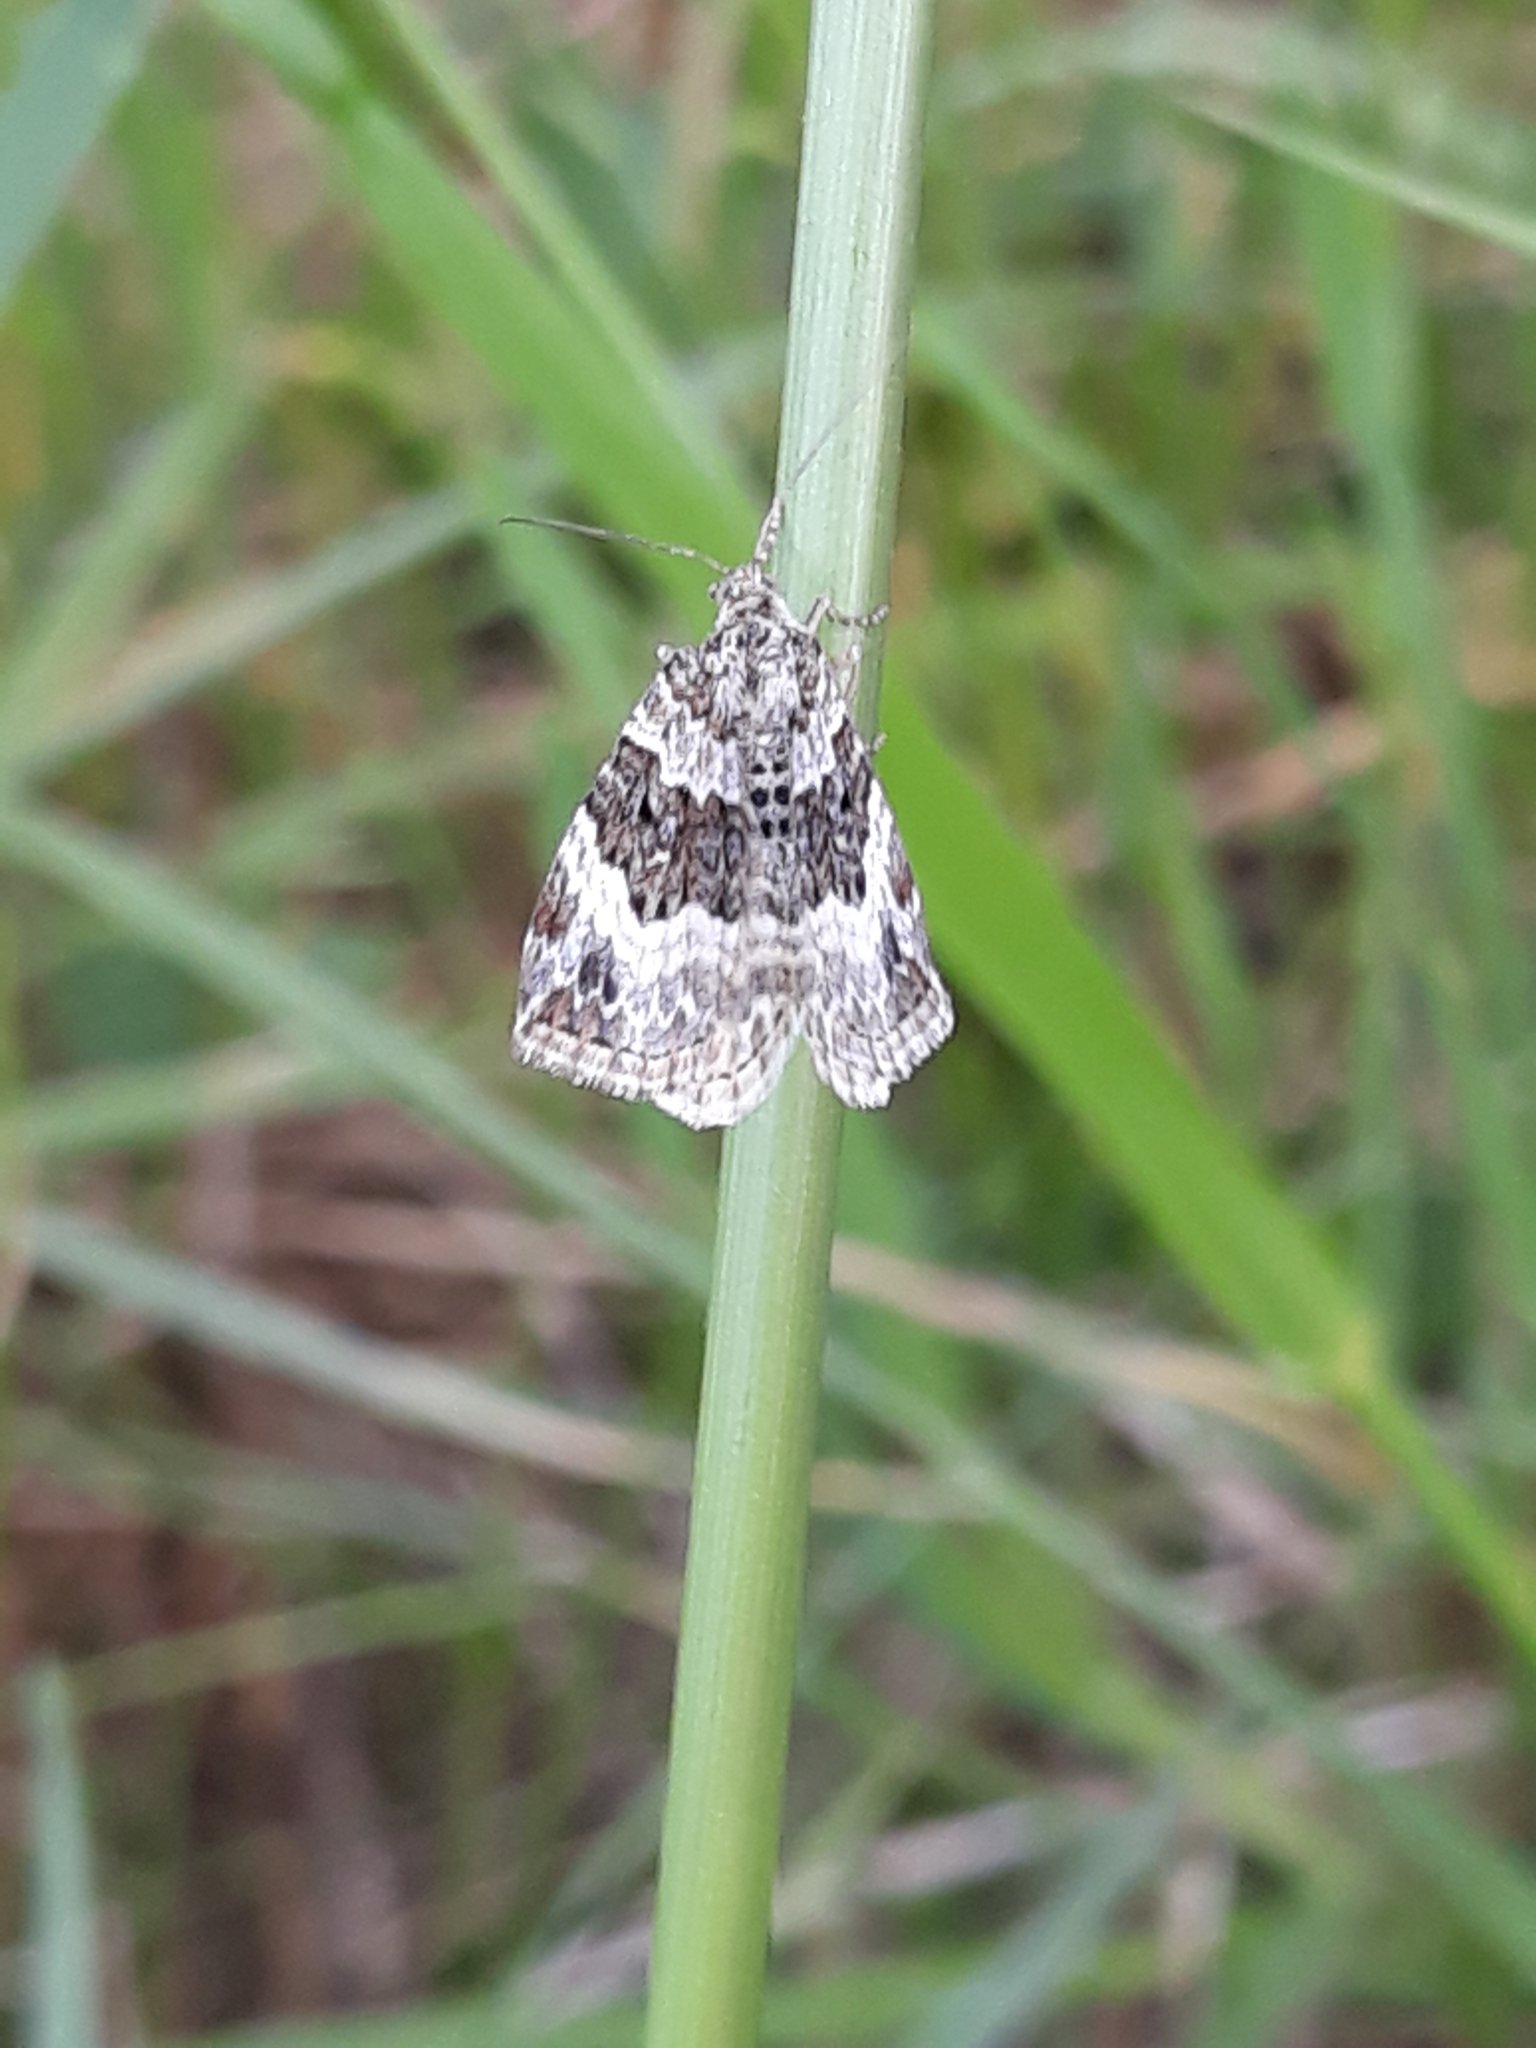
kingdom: Animalia
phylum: Arthropoda
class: Insecta
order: Lepidoptera
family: Geometridae
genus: Epirrhoe
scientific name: Epirrhoe alternata
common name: Common carpet
